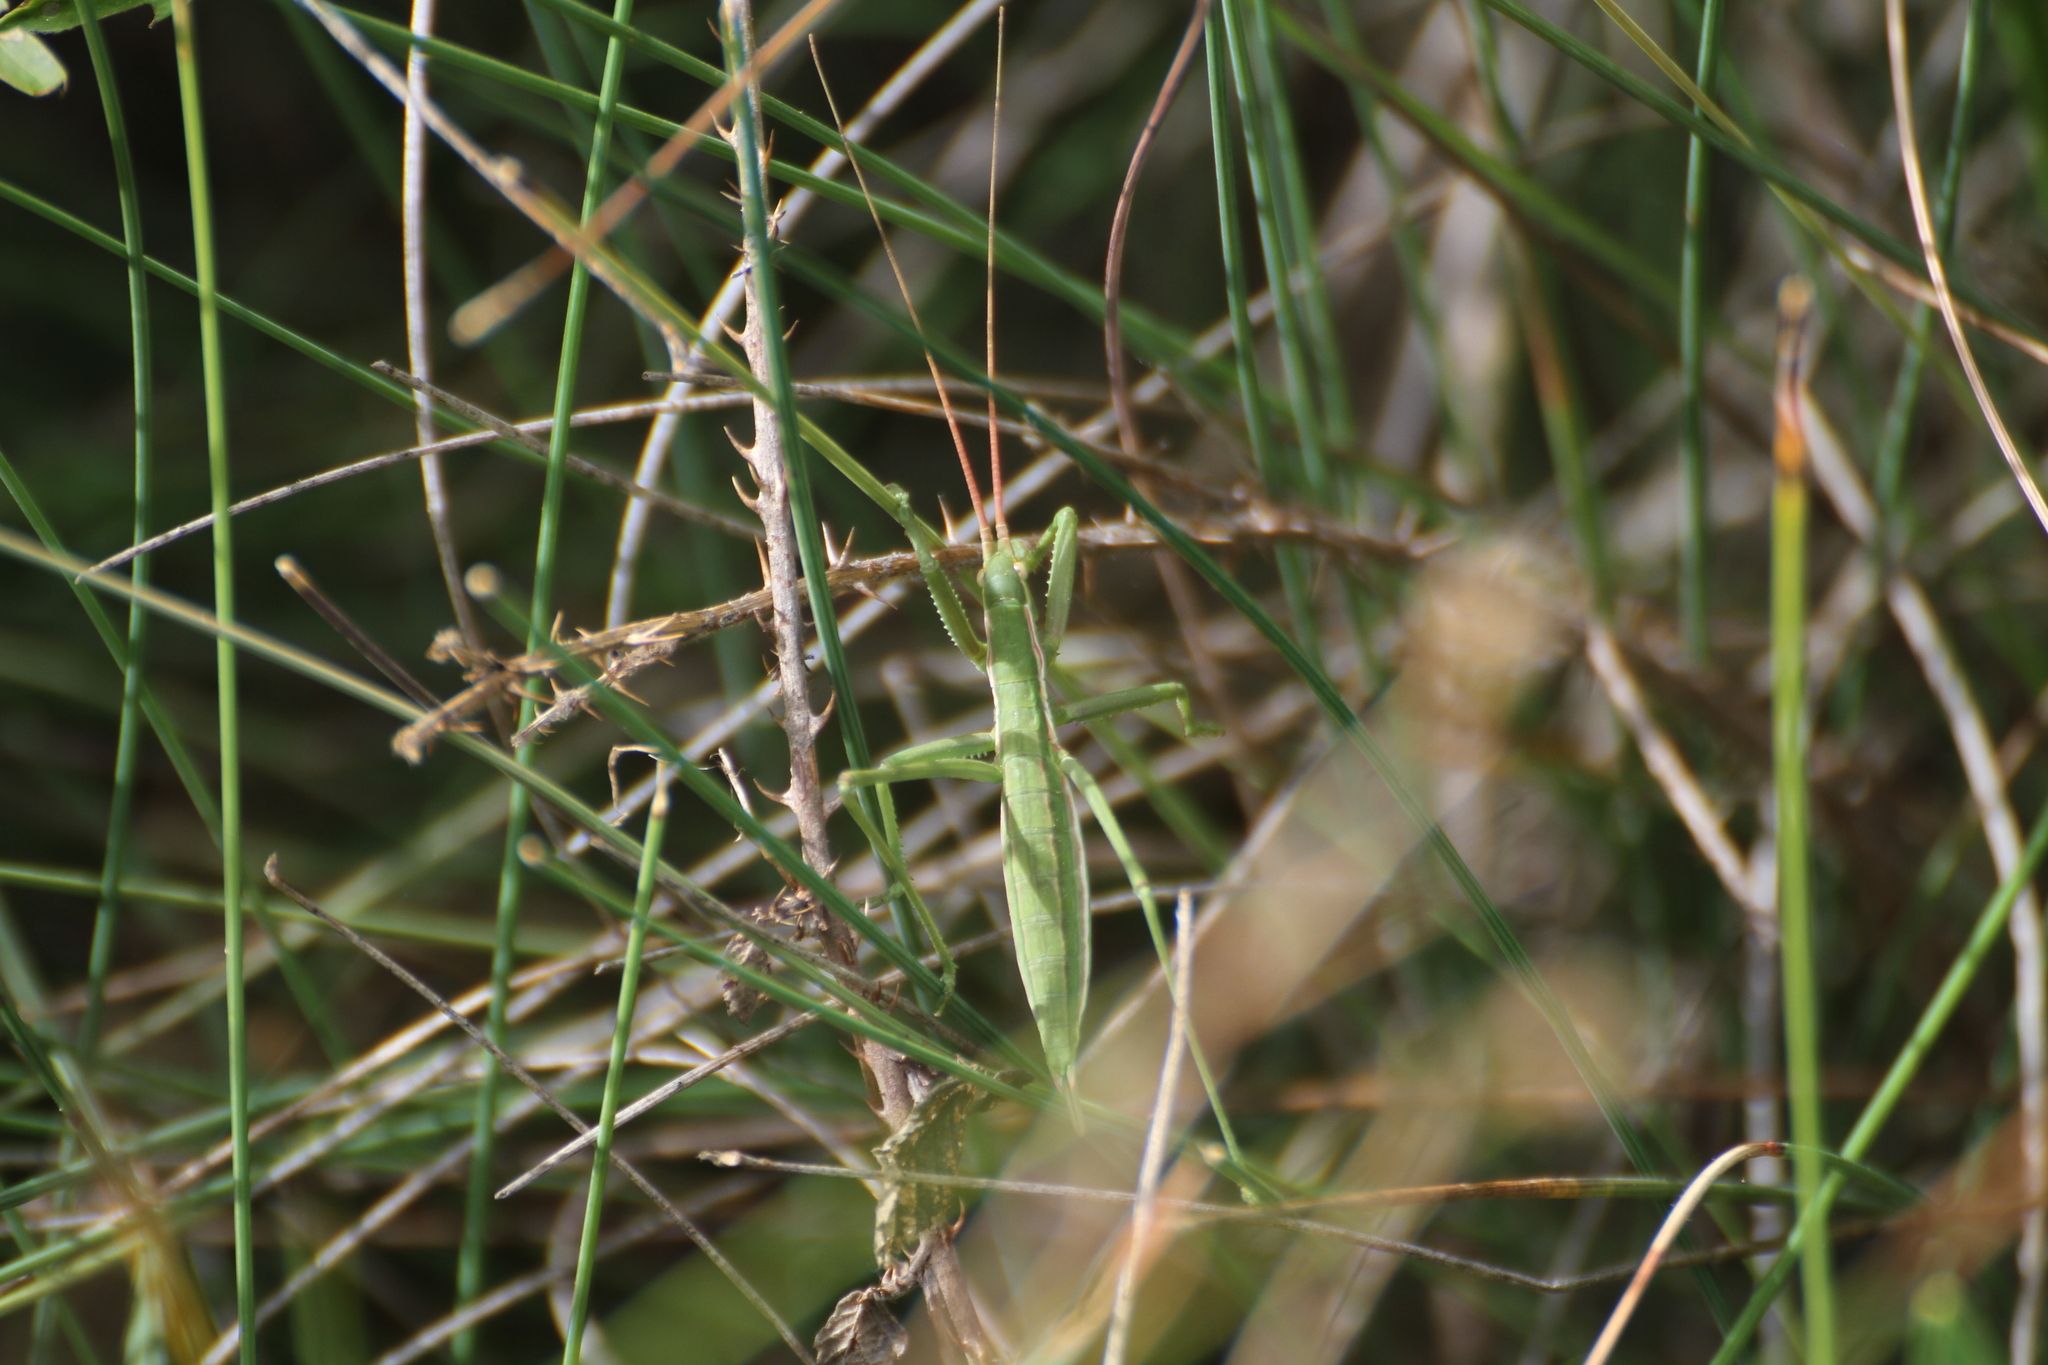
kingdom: Animalia
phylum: Arthropoda
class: Insecta
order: Orthoptera
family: Tettigoniidae
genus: Saga
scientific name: Saga pedo
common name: Common predatory bush-cricket
